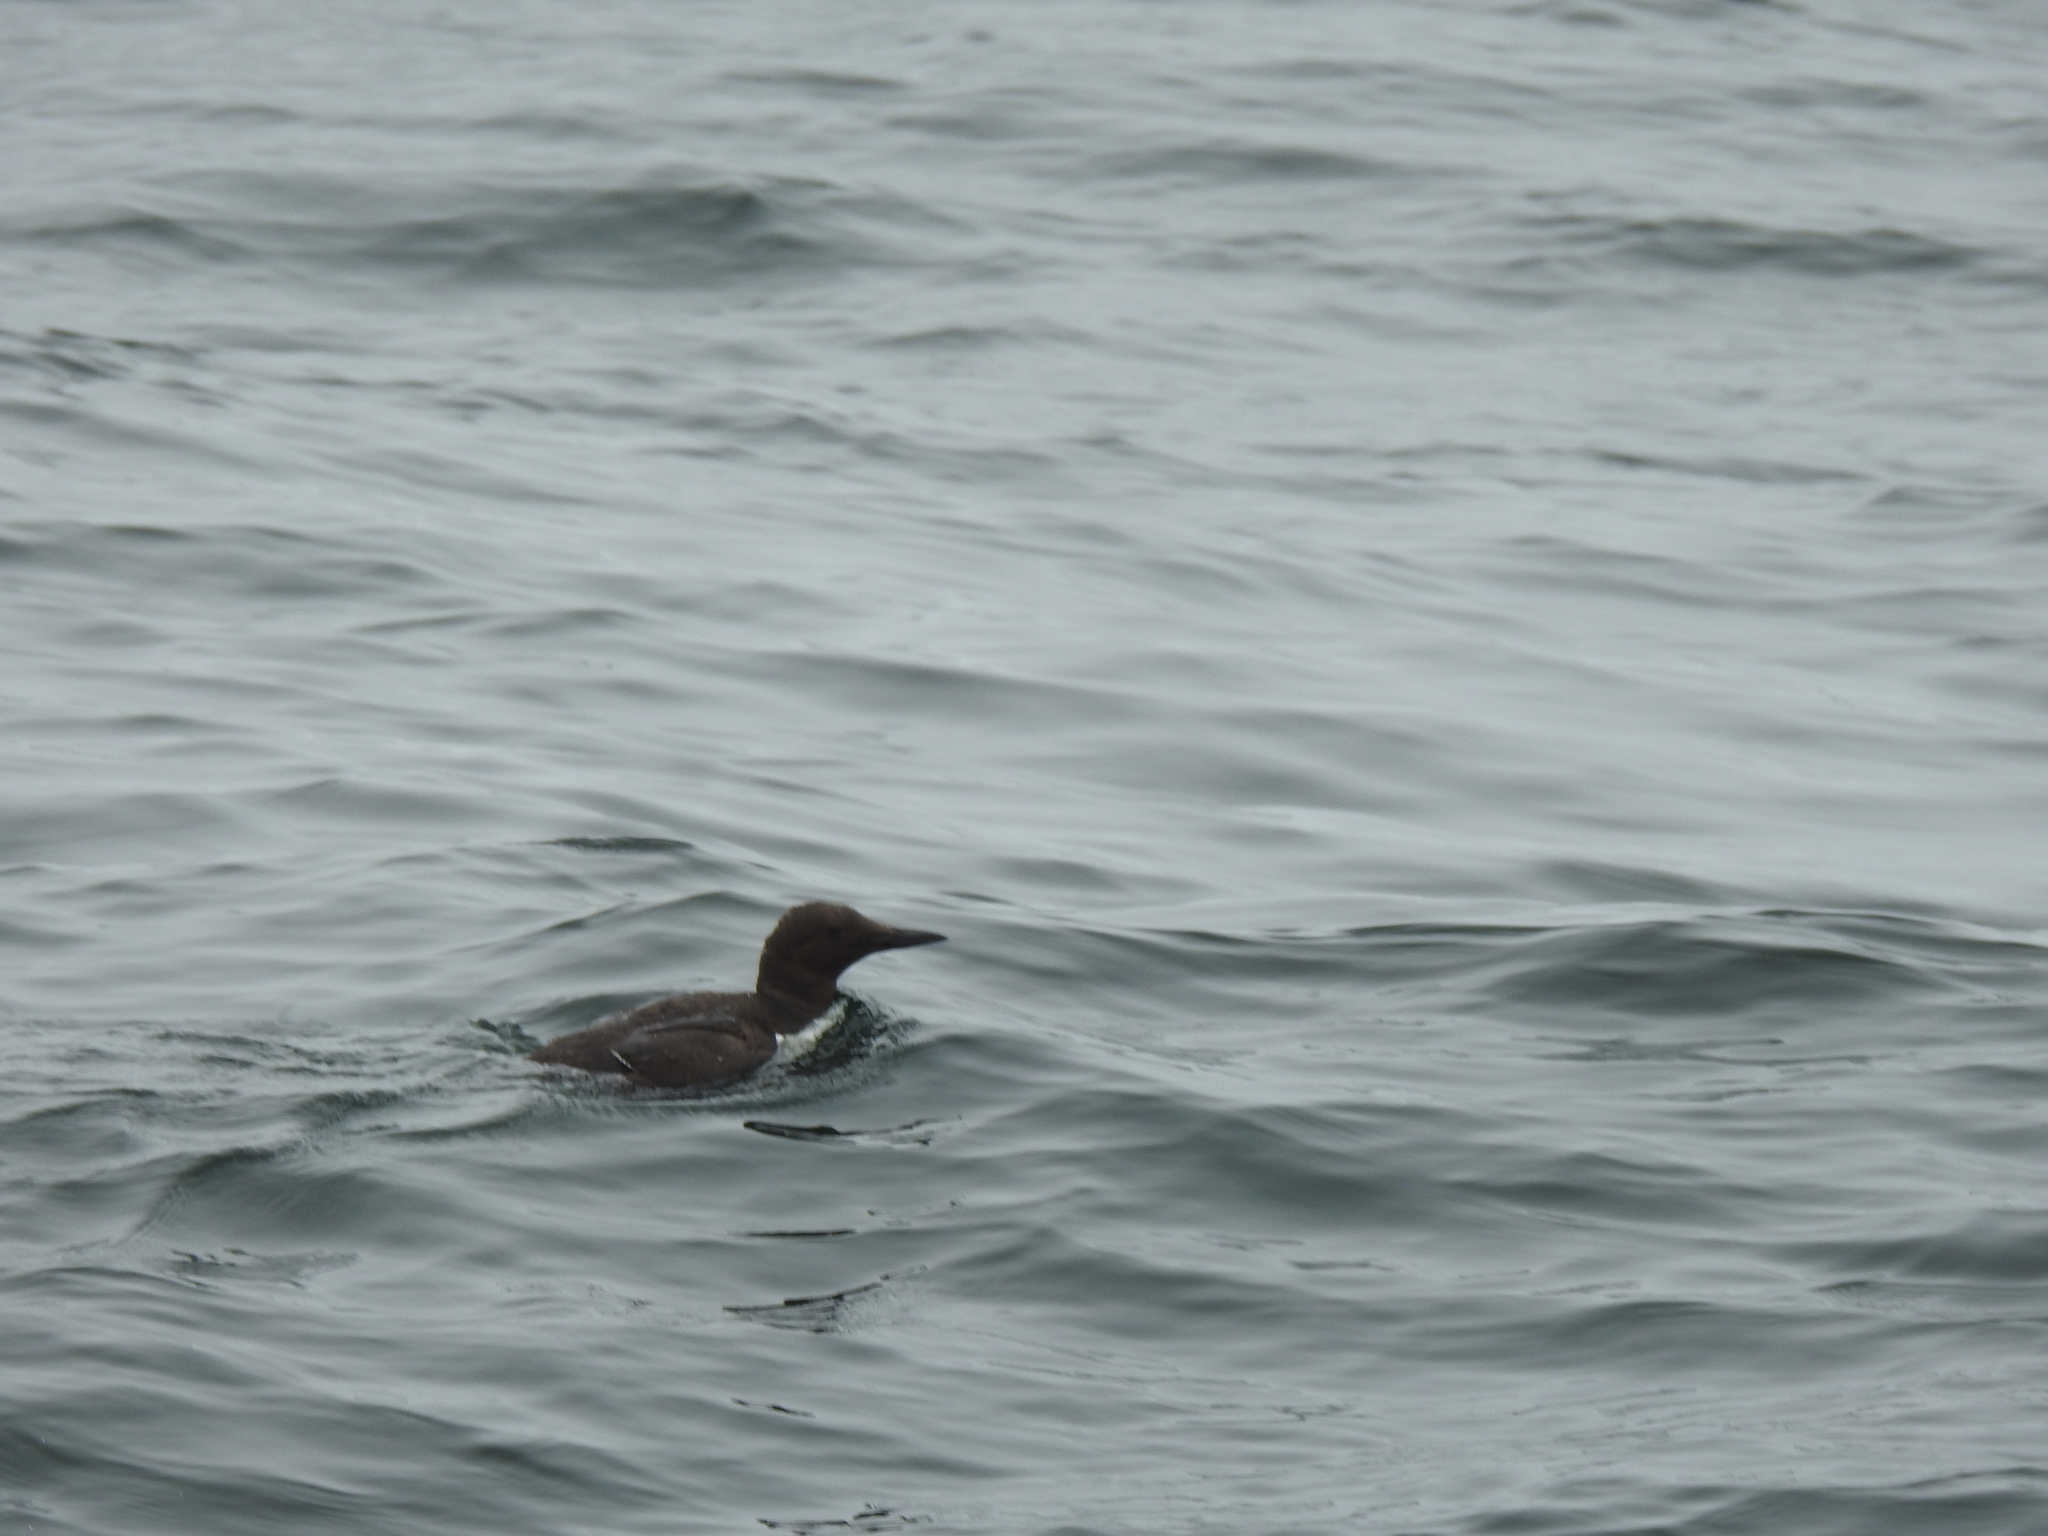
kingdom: Animalia
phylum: Chordata
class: Aves
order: Charadriiformes
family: Alcidae
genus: Uria
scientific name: Uria aalge
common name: Common murre
